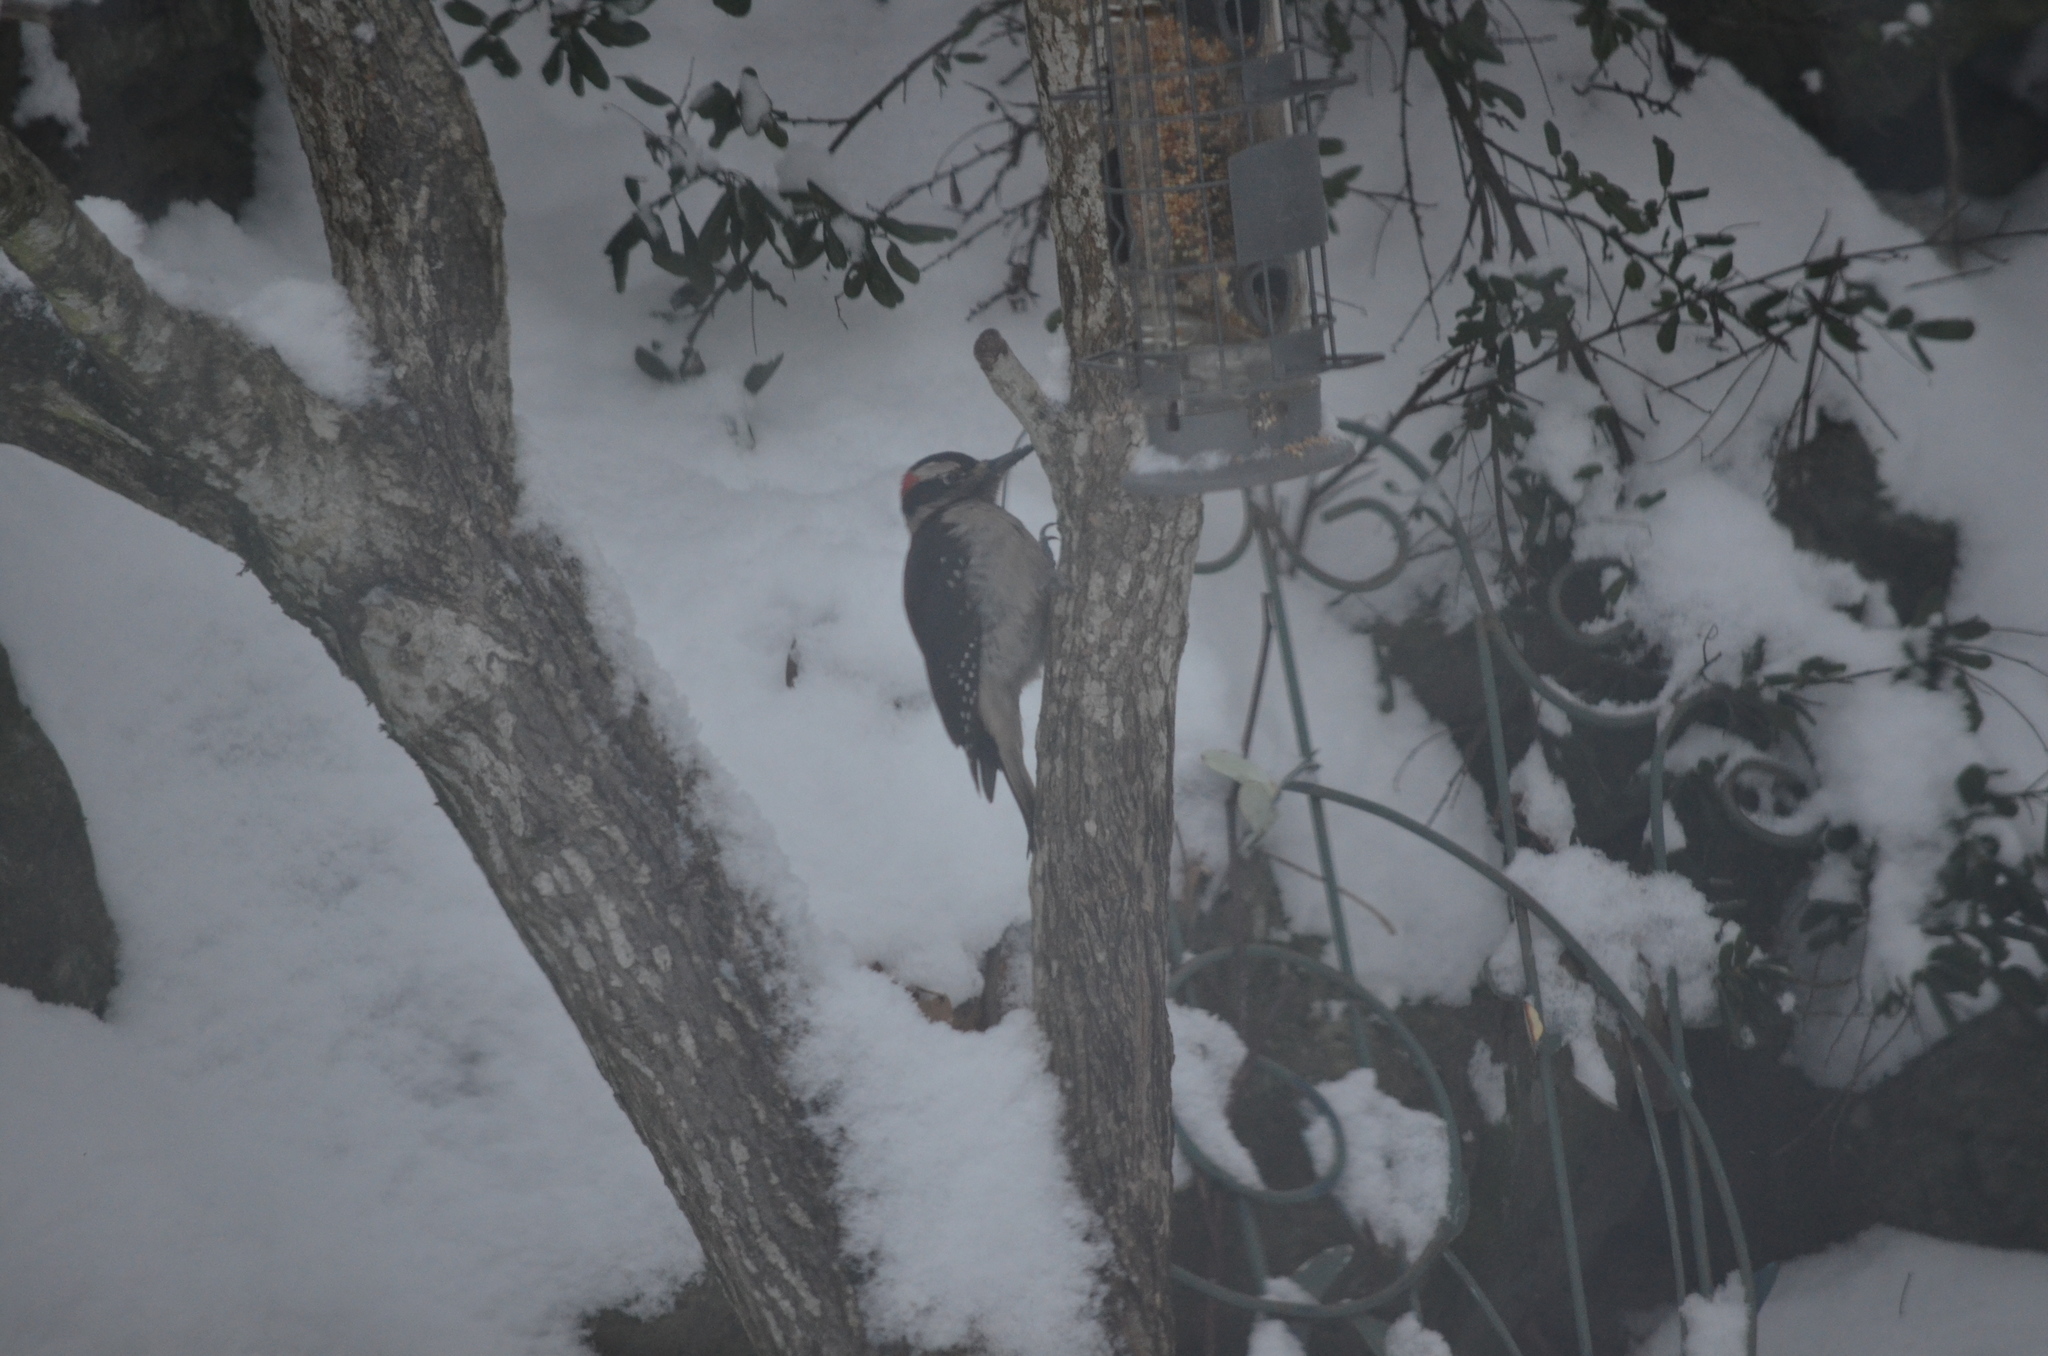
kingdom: Animalia
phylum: Chordata
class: Aves
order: Piciformes
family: Picidae
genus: Leuconotopicus
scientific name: Leuconotopicus villosus
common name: Hairy woodpecker
